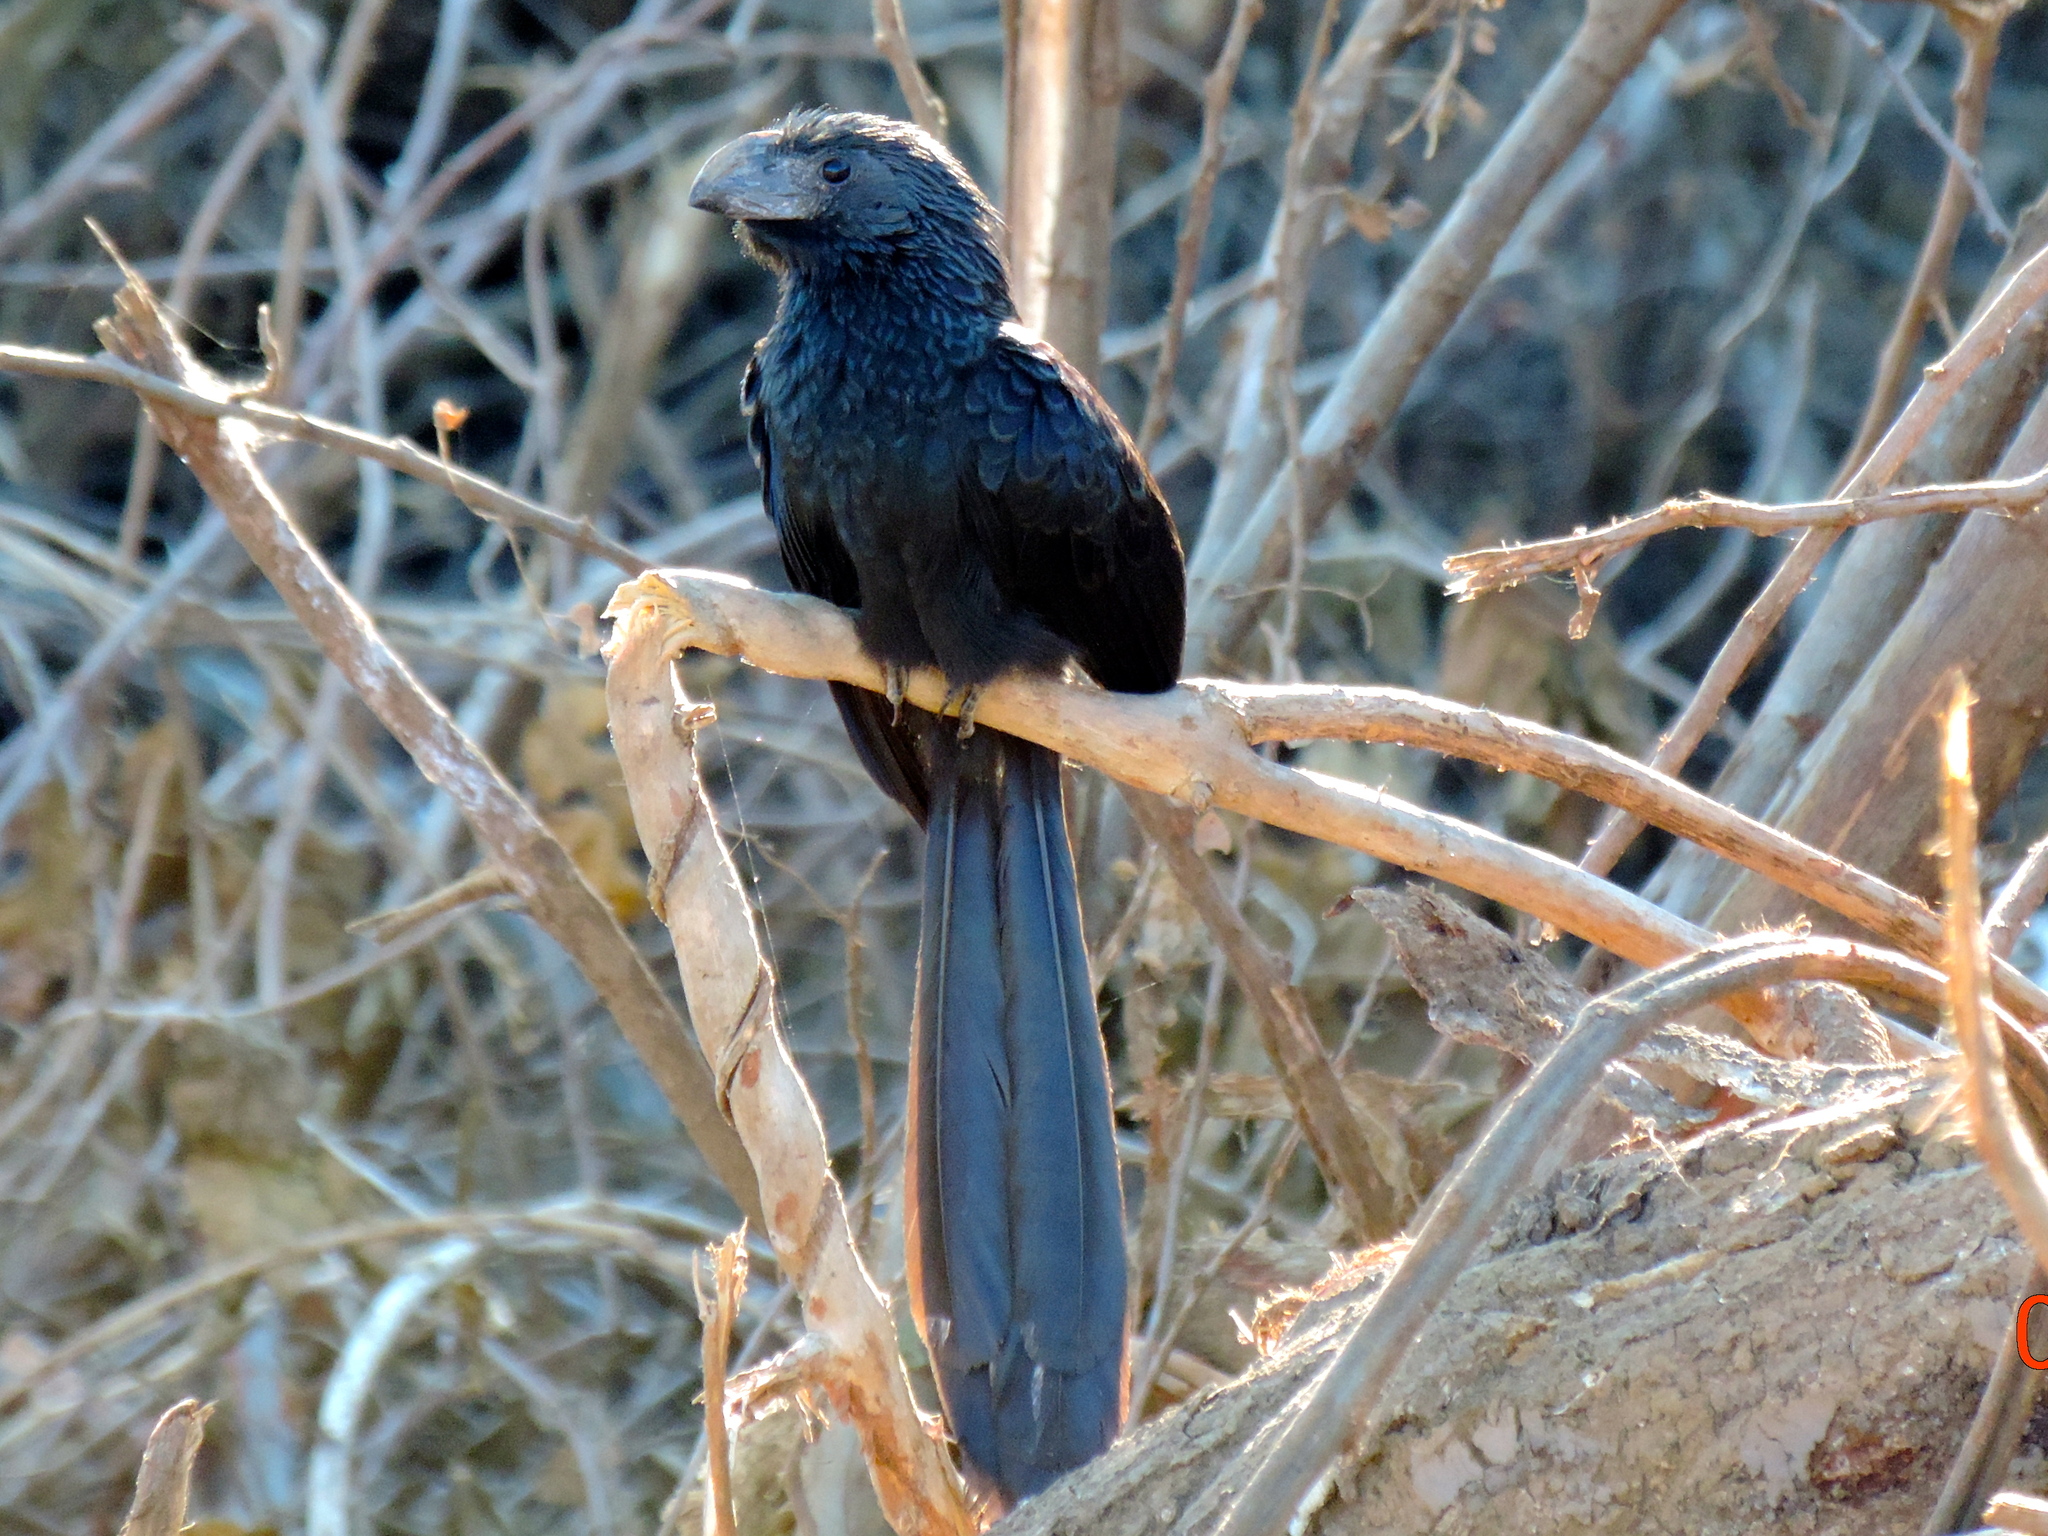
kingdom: Animalia
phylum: Chordata
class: Aves
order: Cuculiformes
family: Cuculidae
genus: Crotophaga
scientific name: Crotophaga sulcirostris
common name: Groove-billed ani
